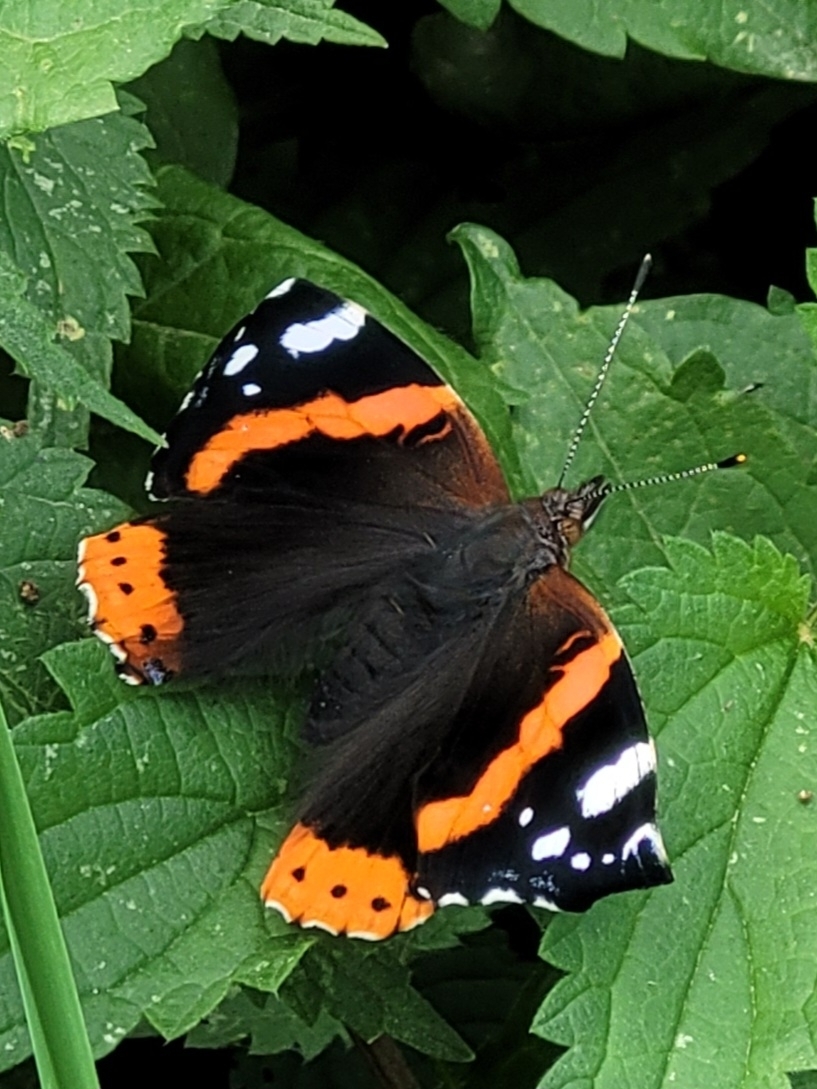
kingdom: Animalia
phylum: Arthropoda
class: Insecta
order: Lepidoptera
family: Nymphalidae
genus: Vanessa
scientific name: Vanessa atalanta
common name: Red admiral
